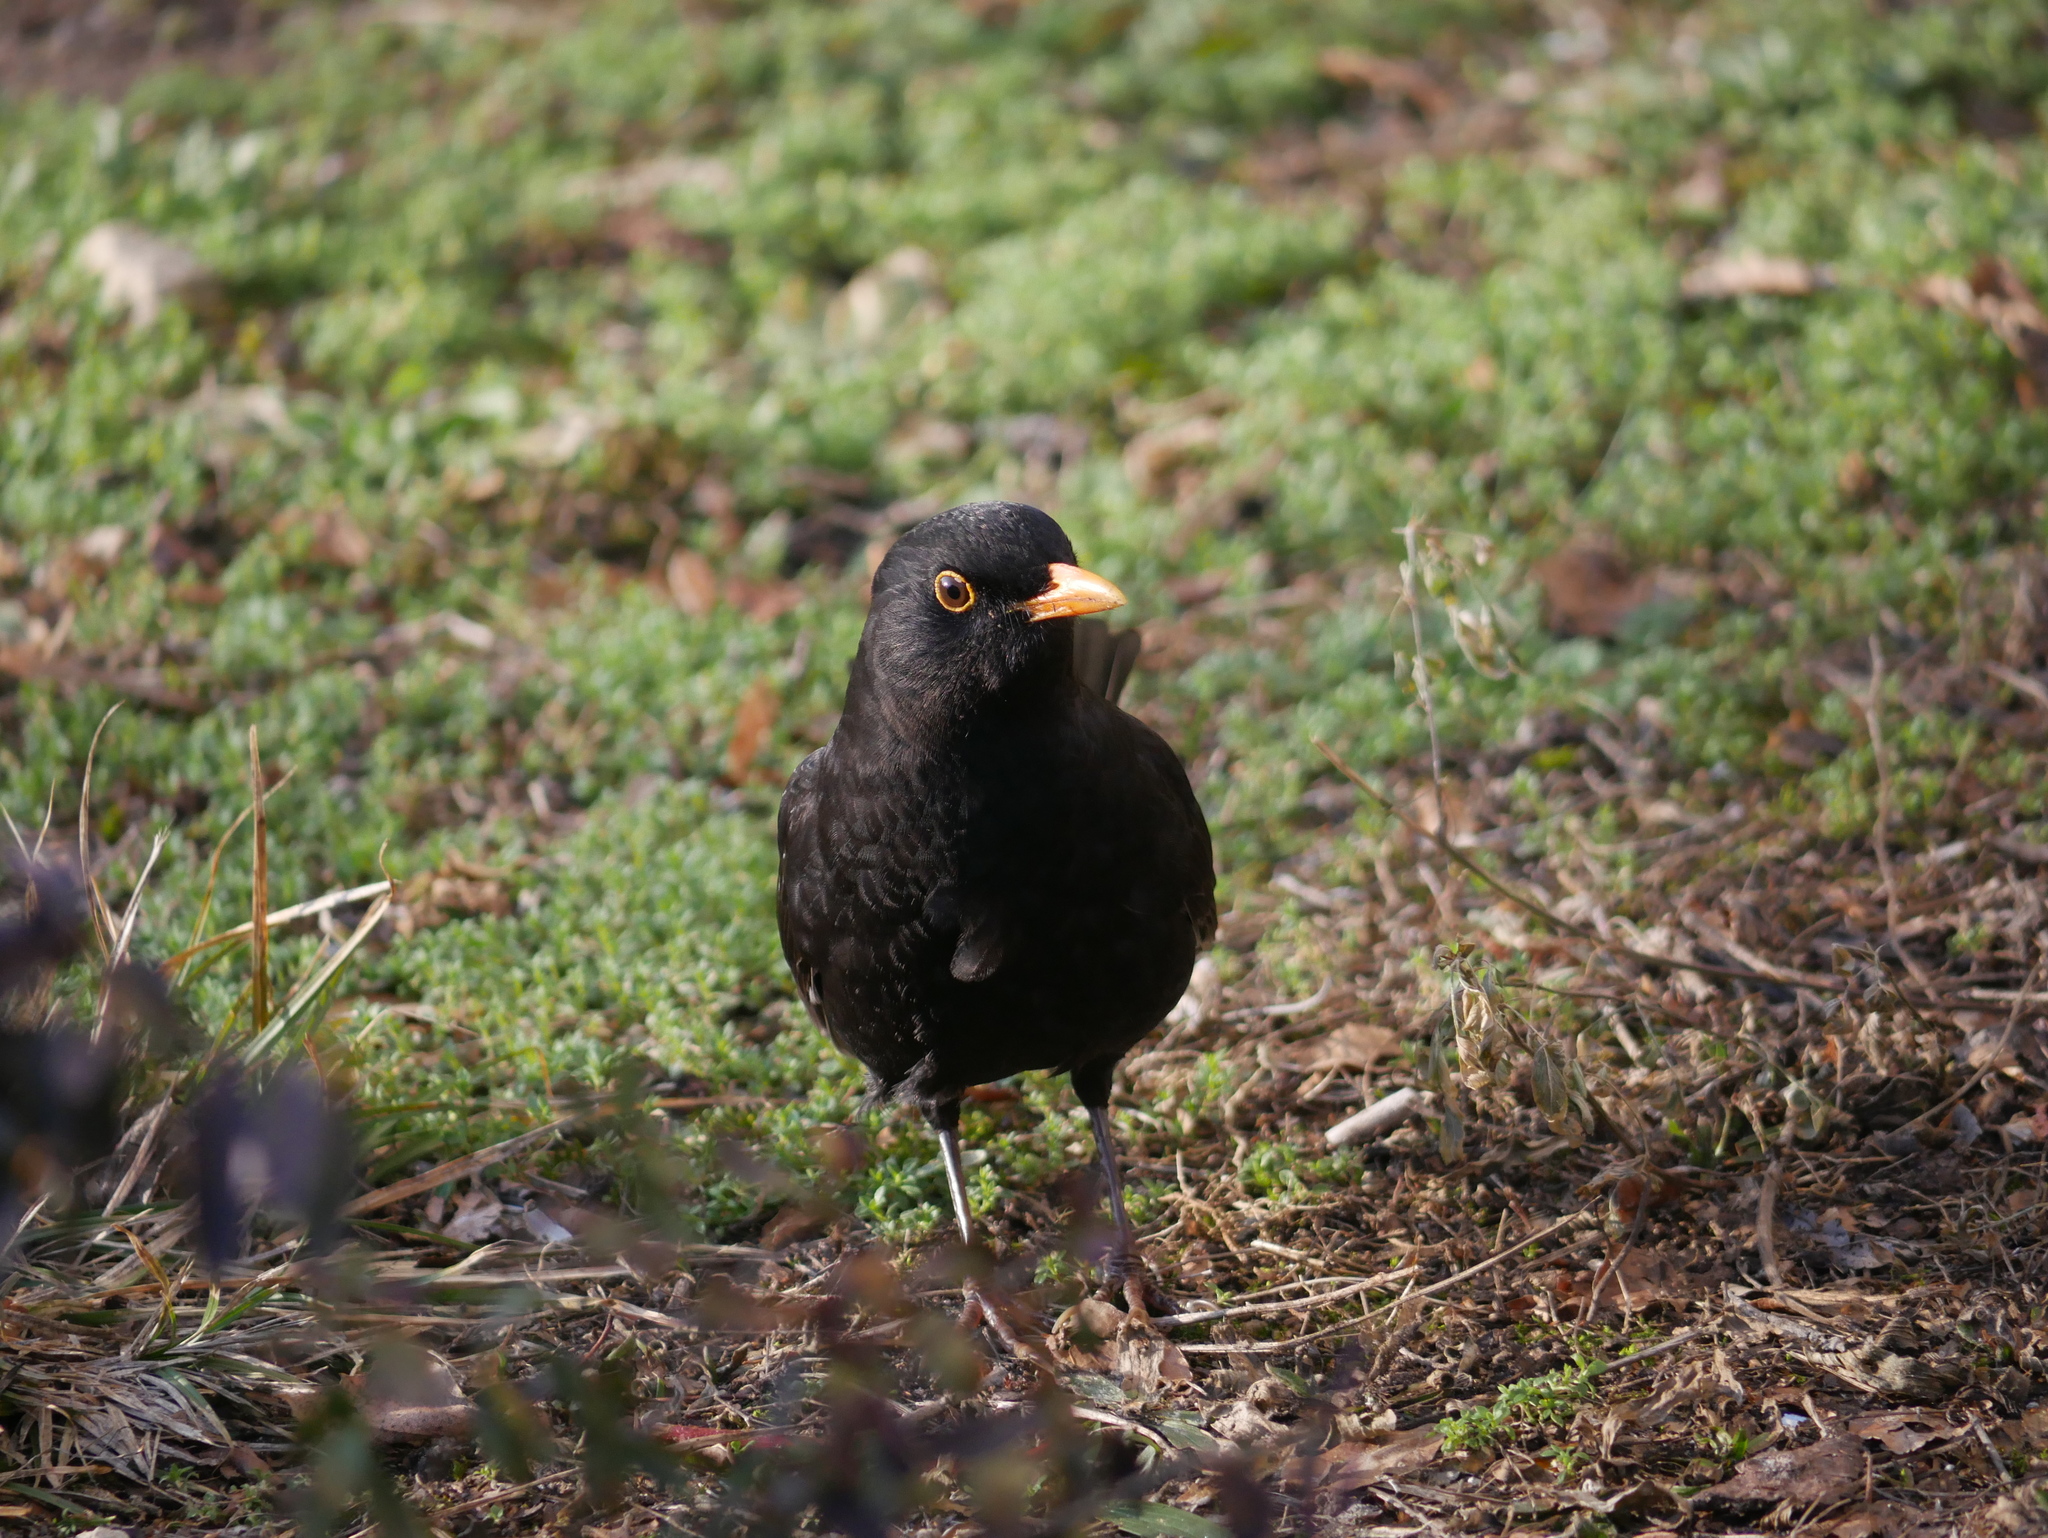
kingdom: Animalia
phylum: Chordata
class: Aves
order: Passeriformes
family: Turdidae
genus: Turdus
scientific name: Turdus merula
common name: Common blackbird
